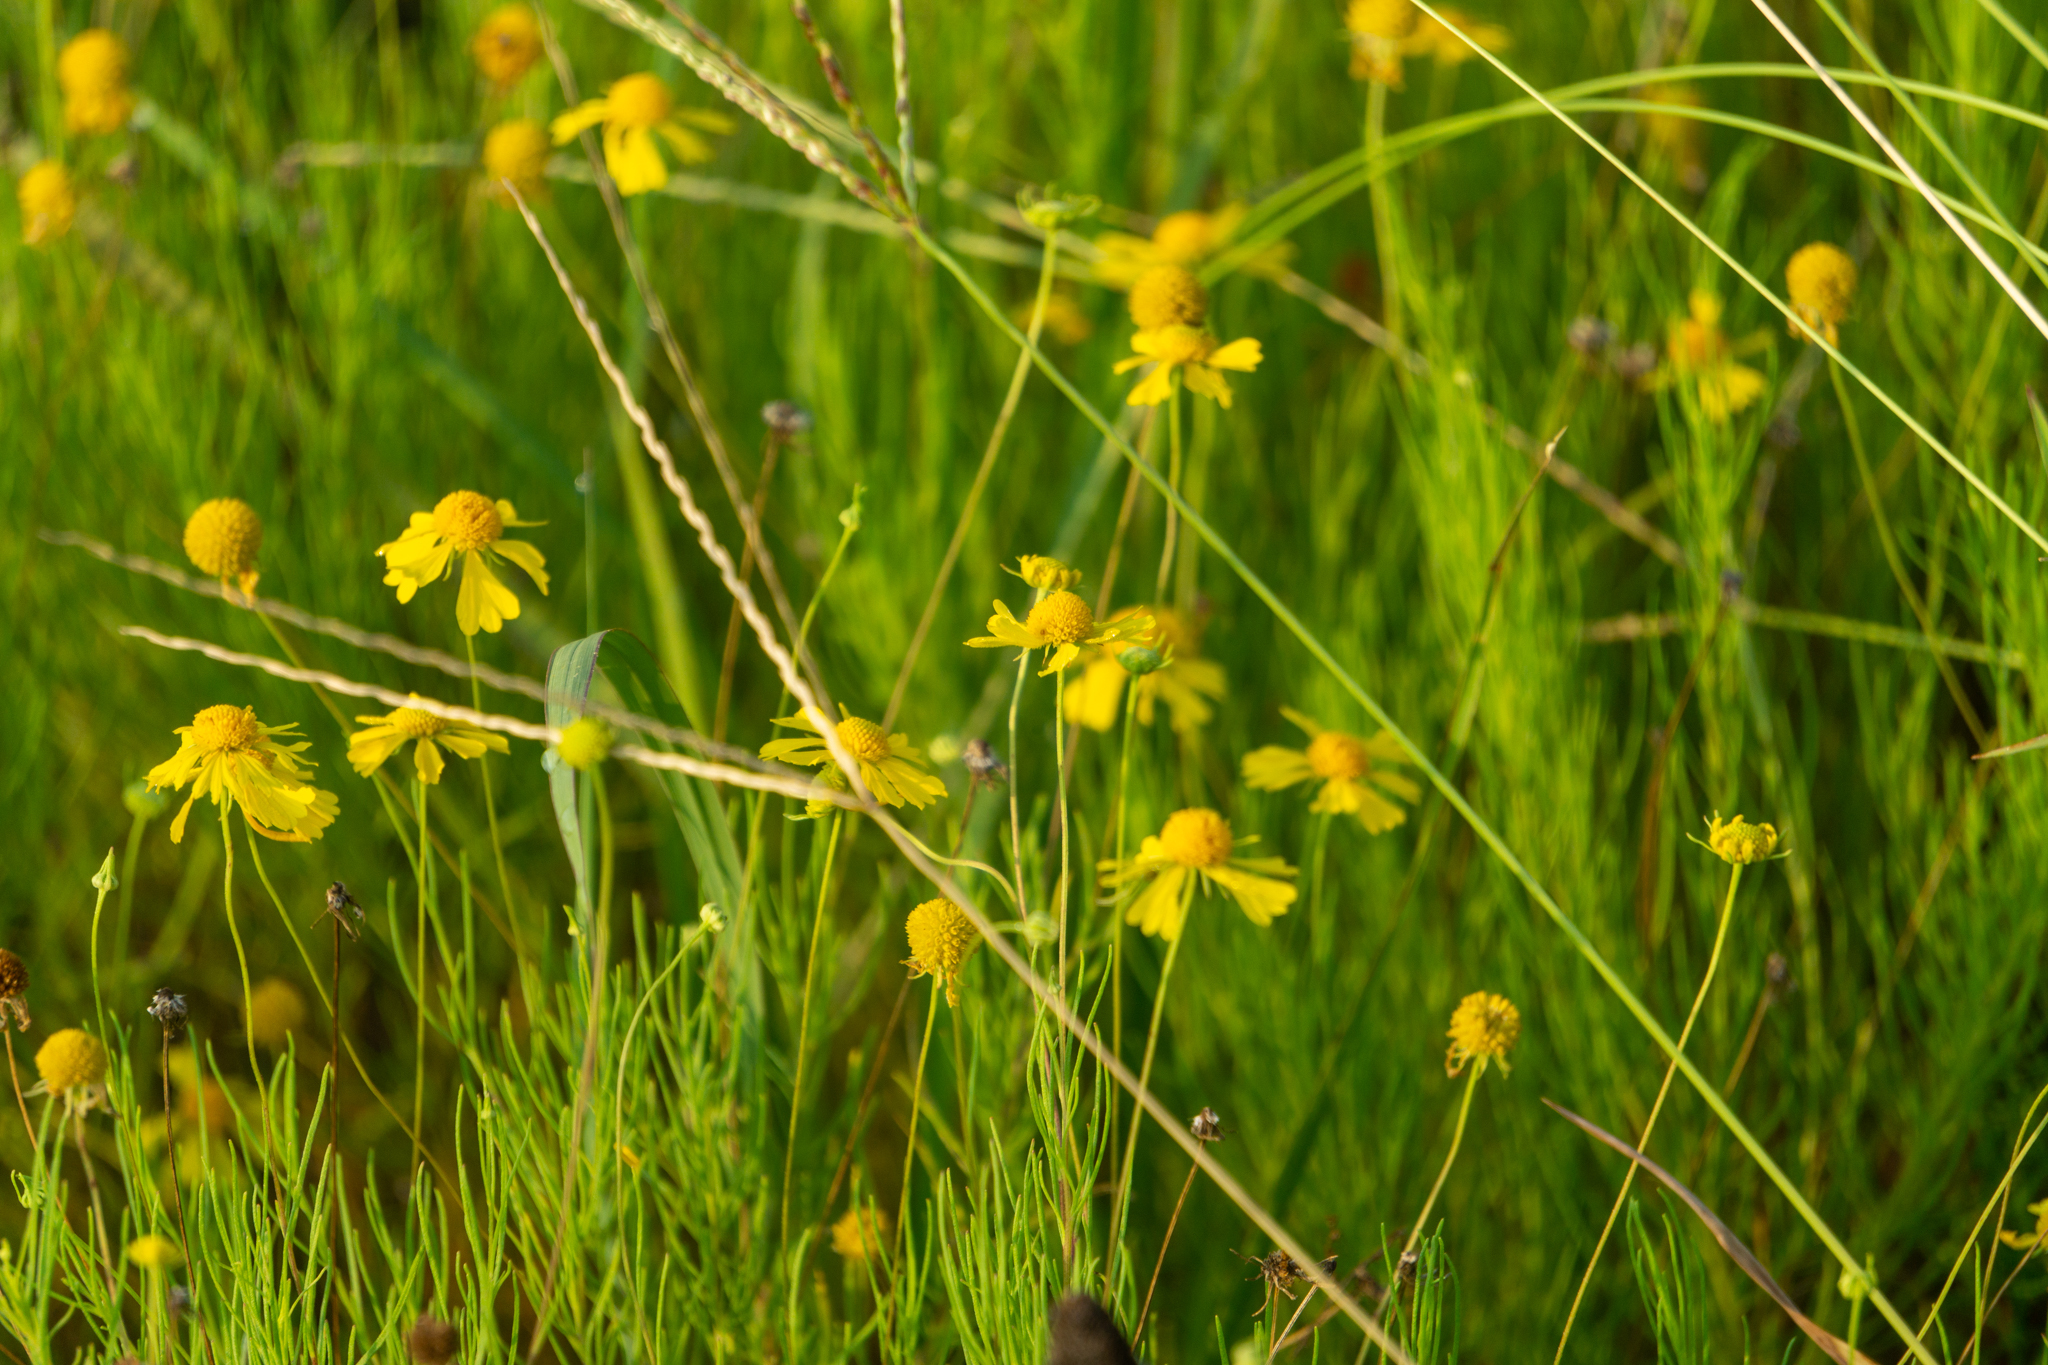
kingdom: Plantae
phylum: Tracheophyta
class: Magnoliopsida
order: Asterales
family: Asteraceae
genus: Helenium
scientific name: Helenium bigelovii
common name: Bigelow's sneezeweed
